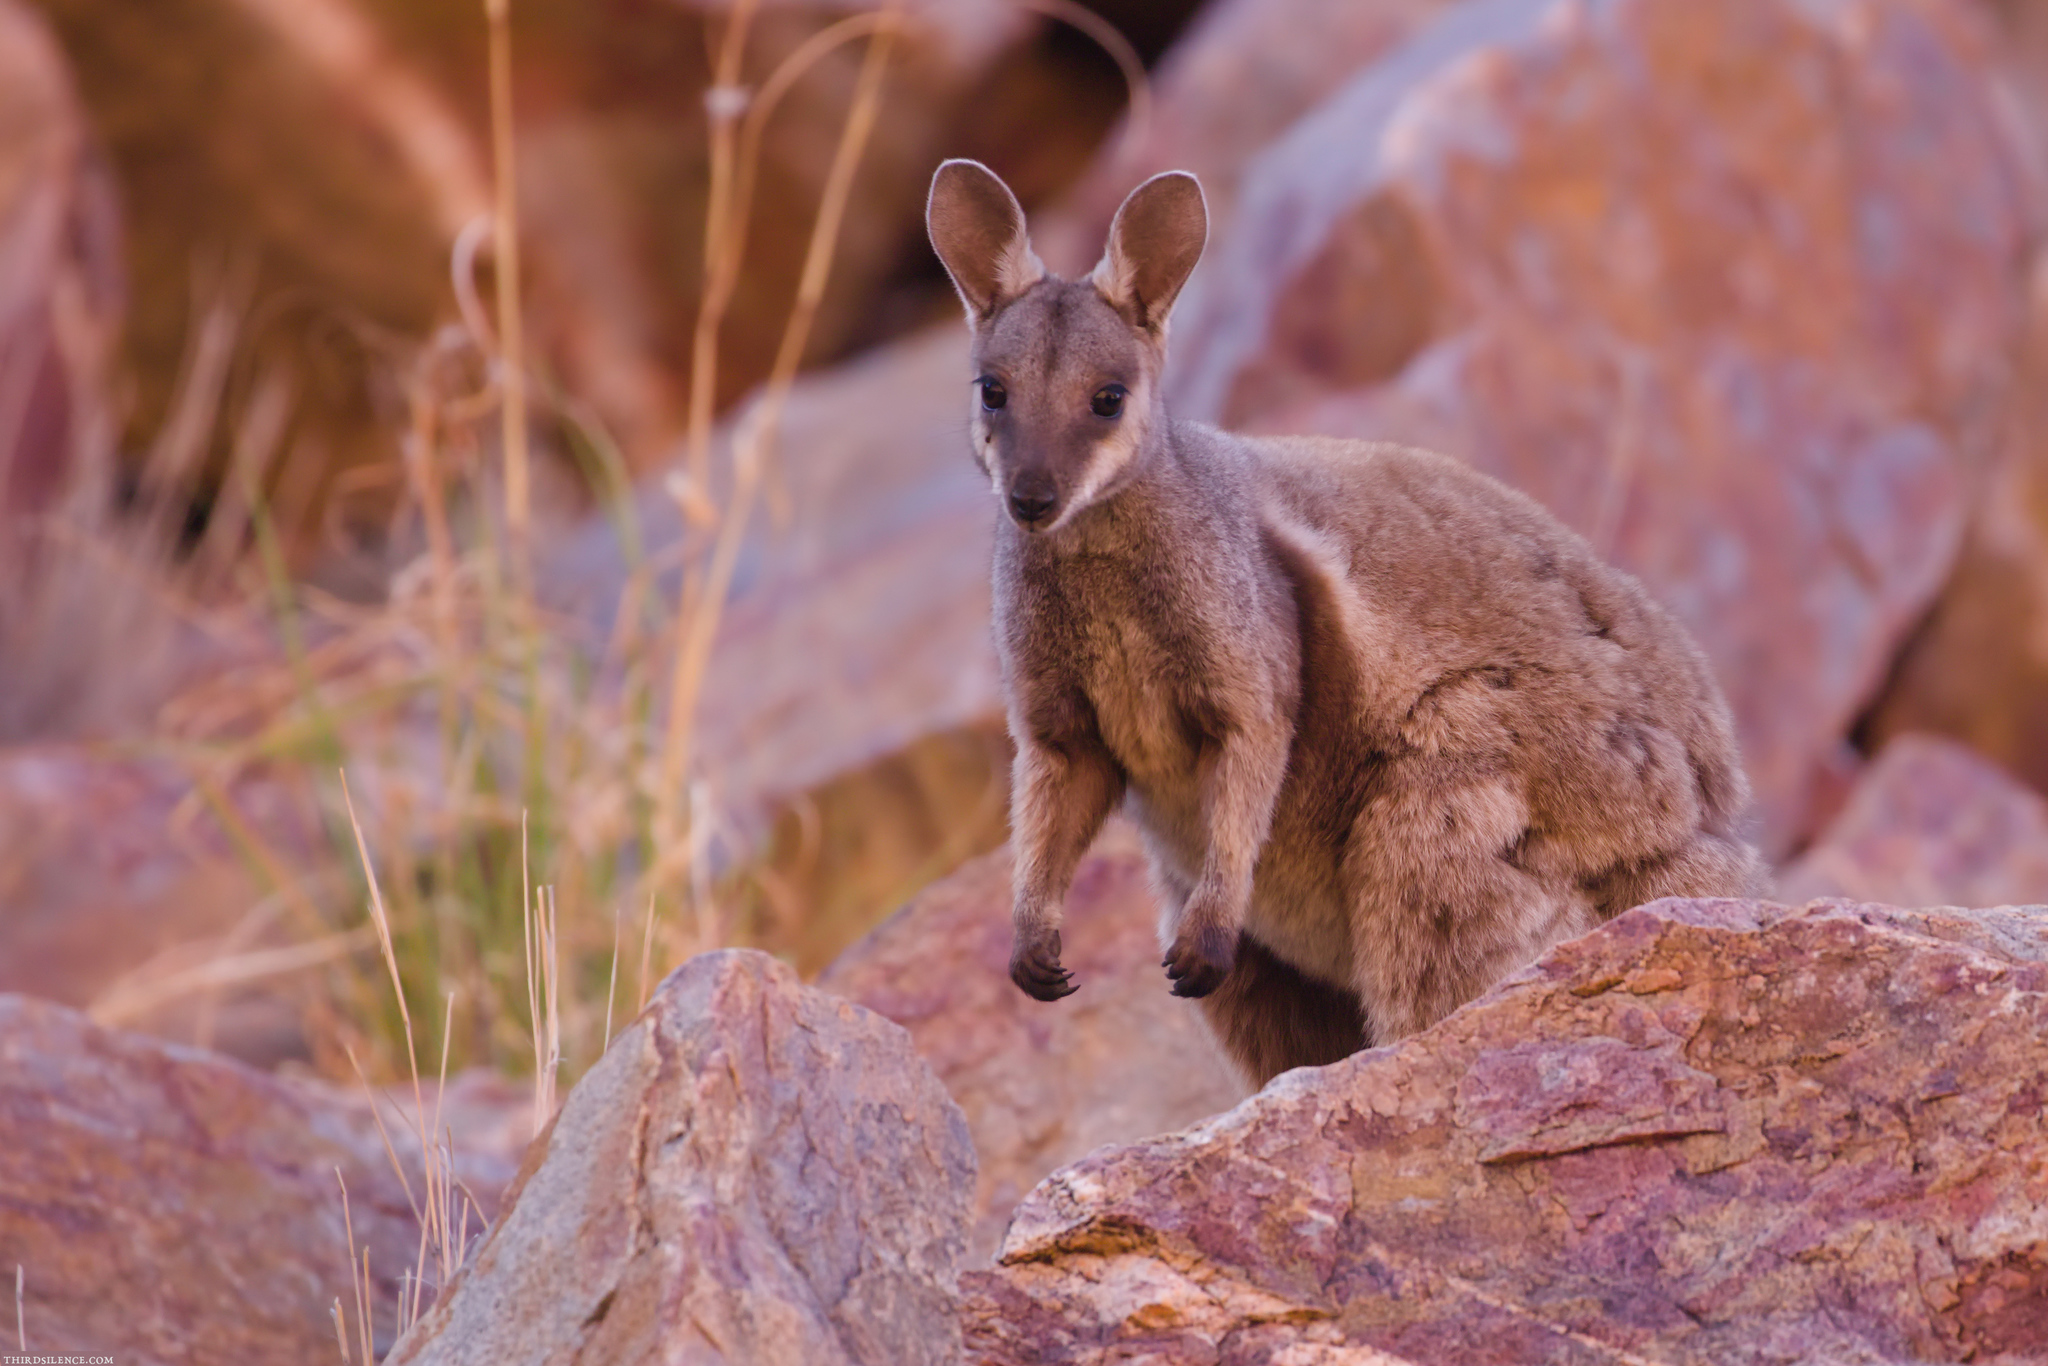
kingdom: Animalia
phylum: Chordata
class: Mammalia
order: Diprotodontia
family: Macropodidae
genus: Petrogale
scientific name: Petrogale lateralis
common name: Black-flanked rock-wallaby
